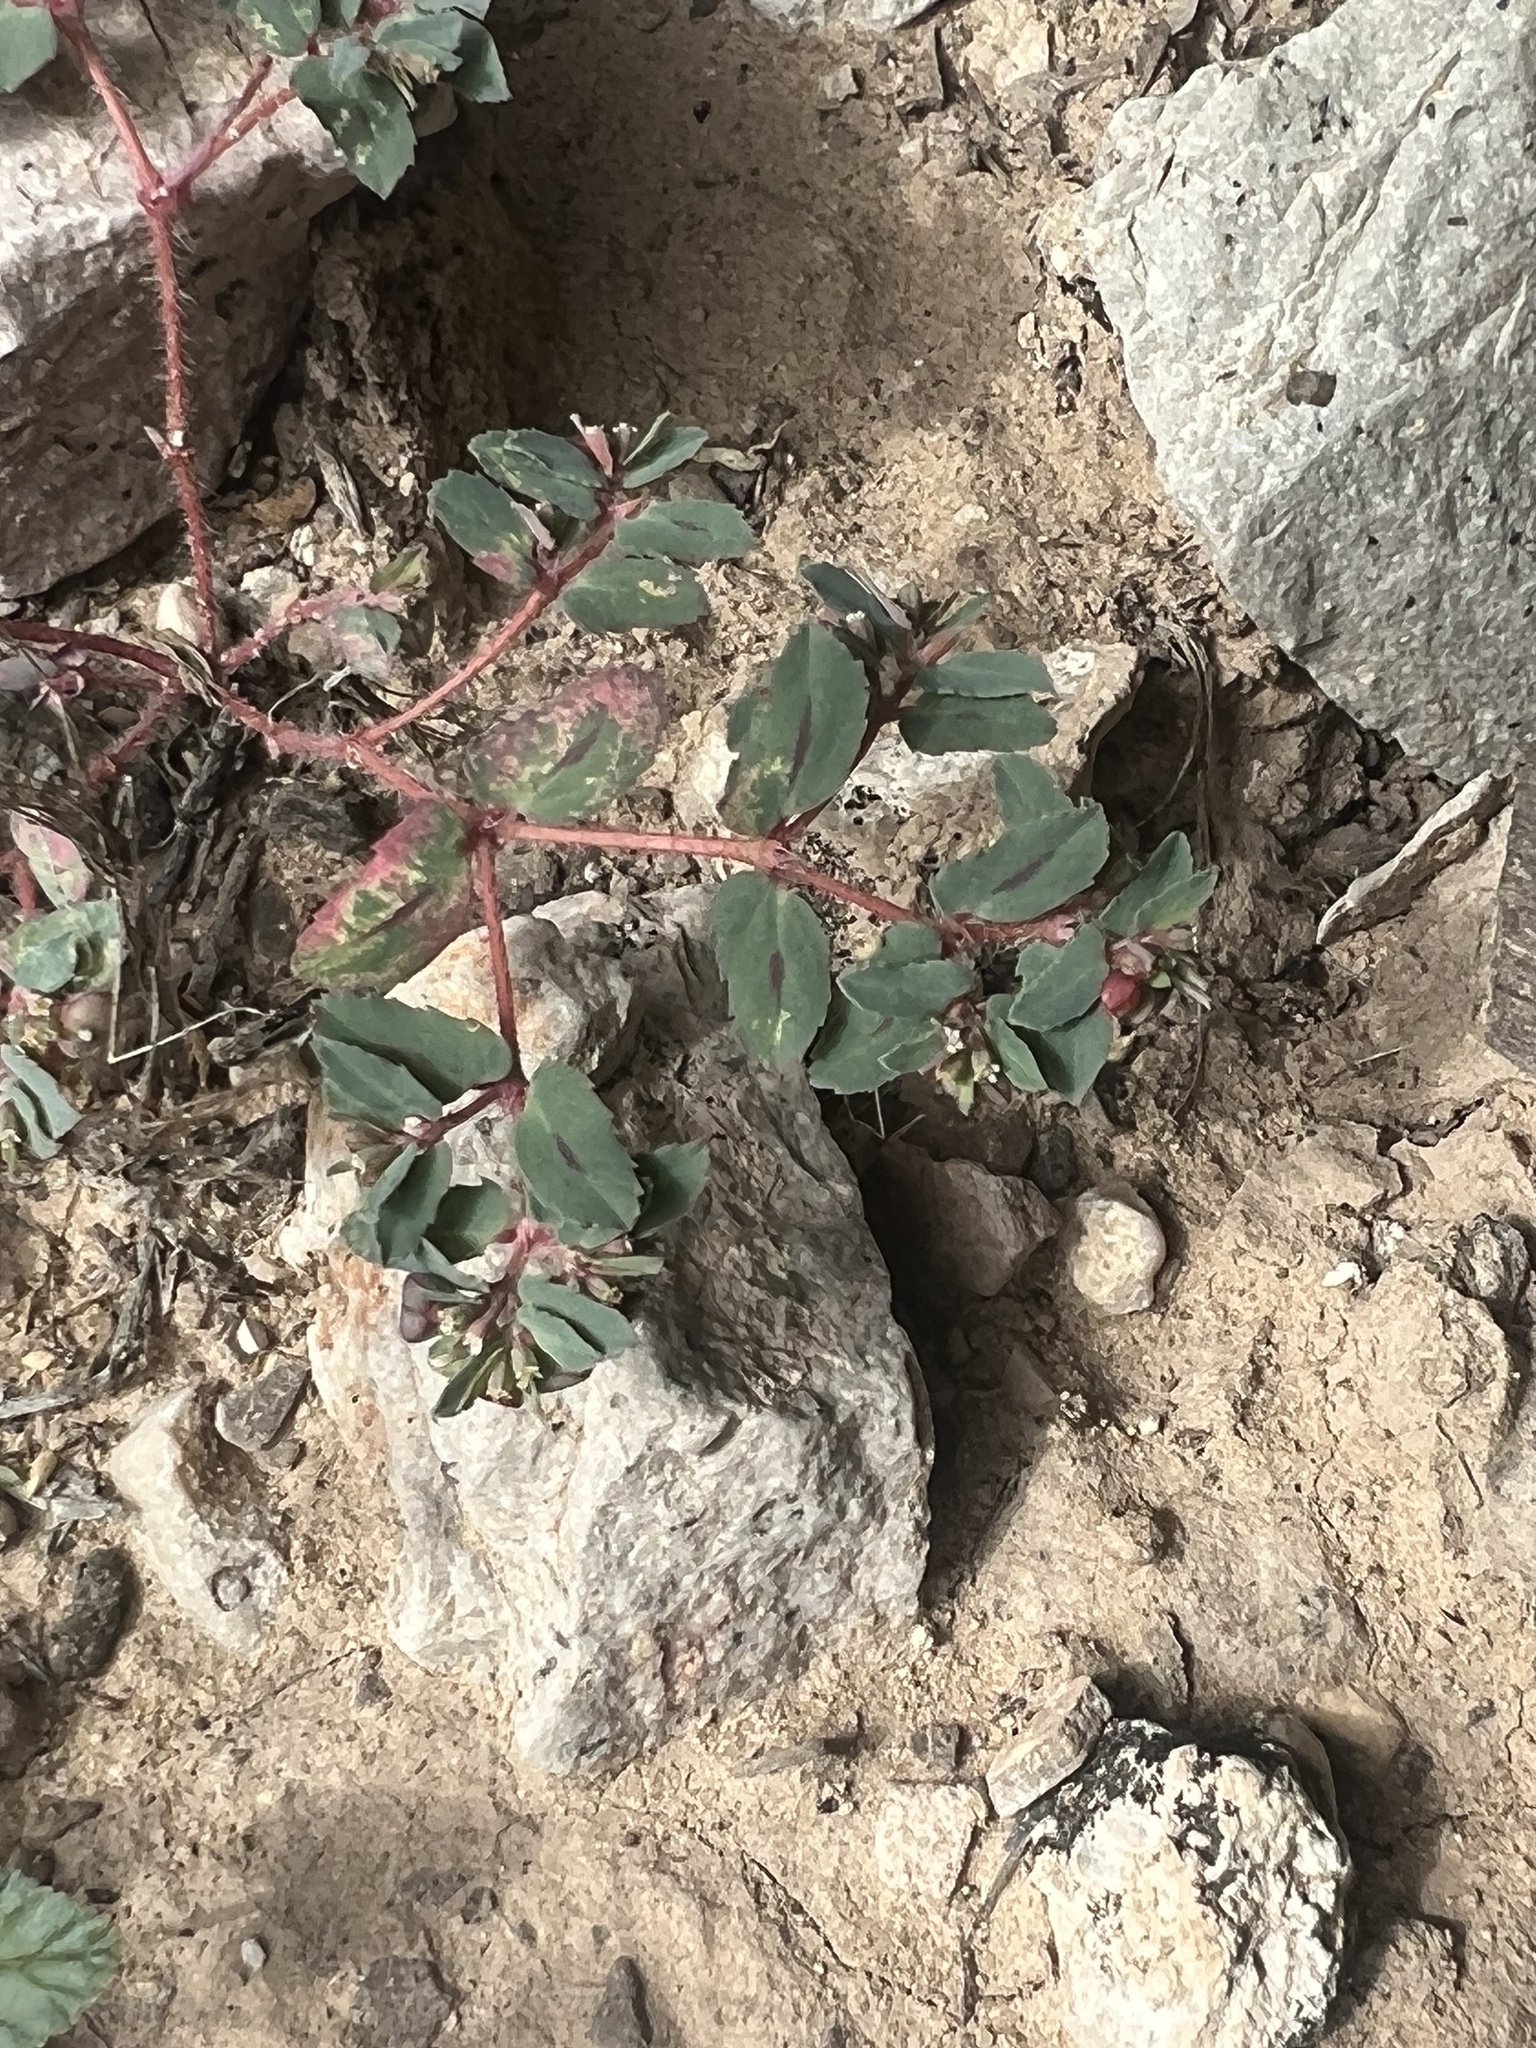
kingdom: Plantae
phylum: Tracheophyta
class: Magnoliopsida
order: Malpighiales
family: Euphorbiaceae
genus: Euphorbia
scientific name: Euphorbia serrula
